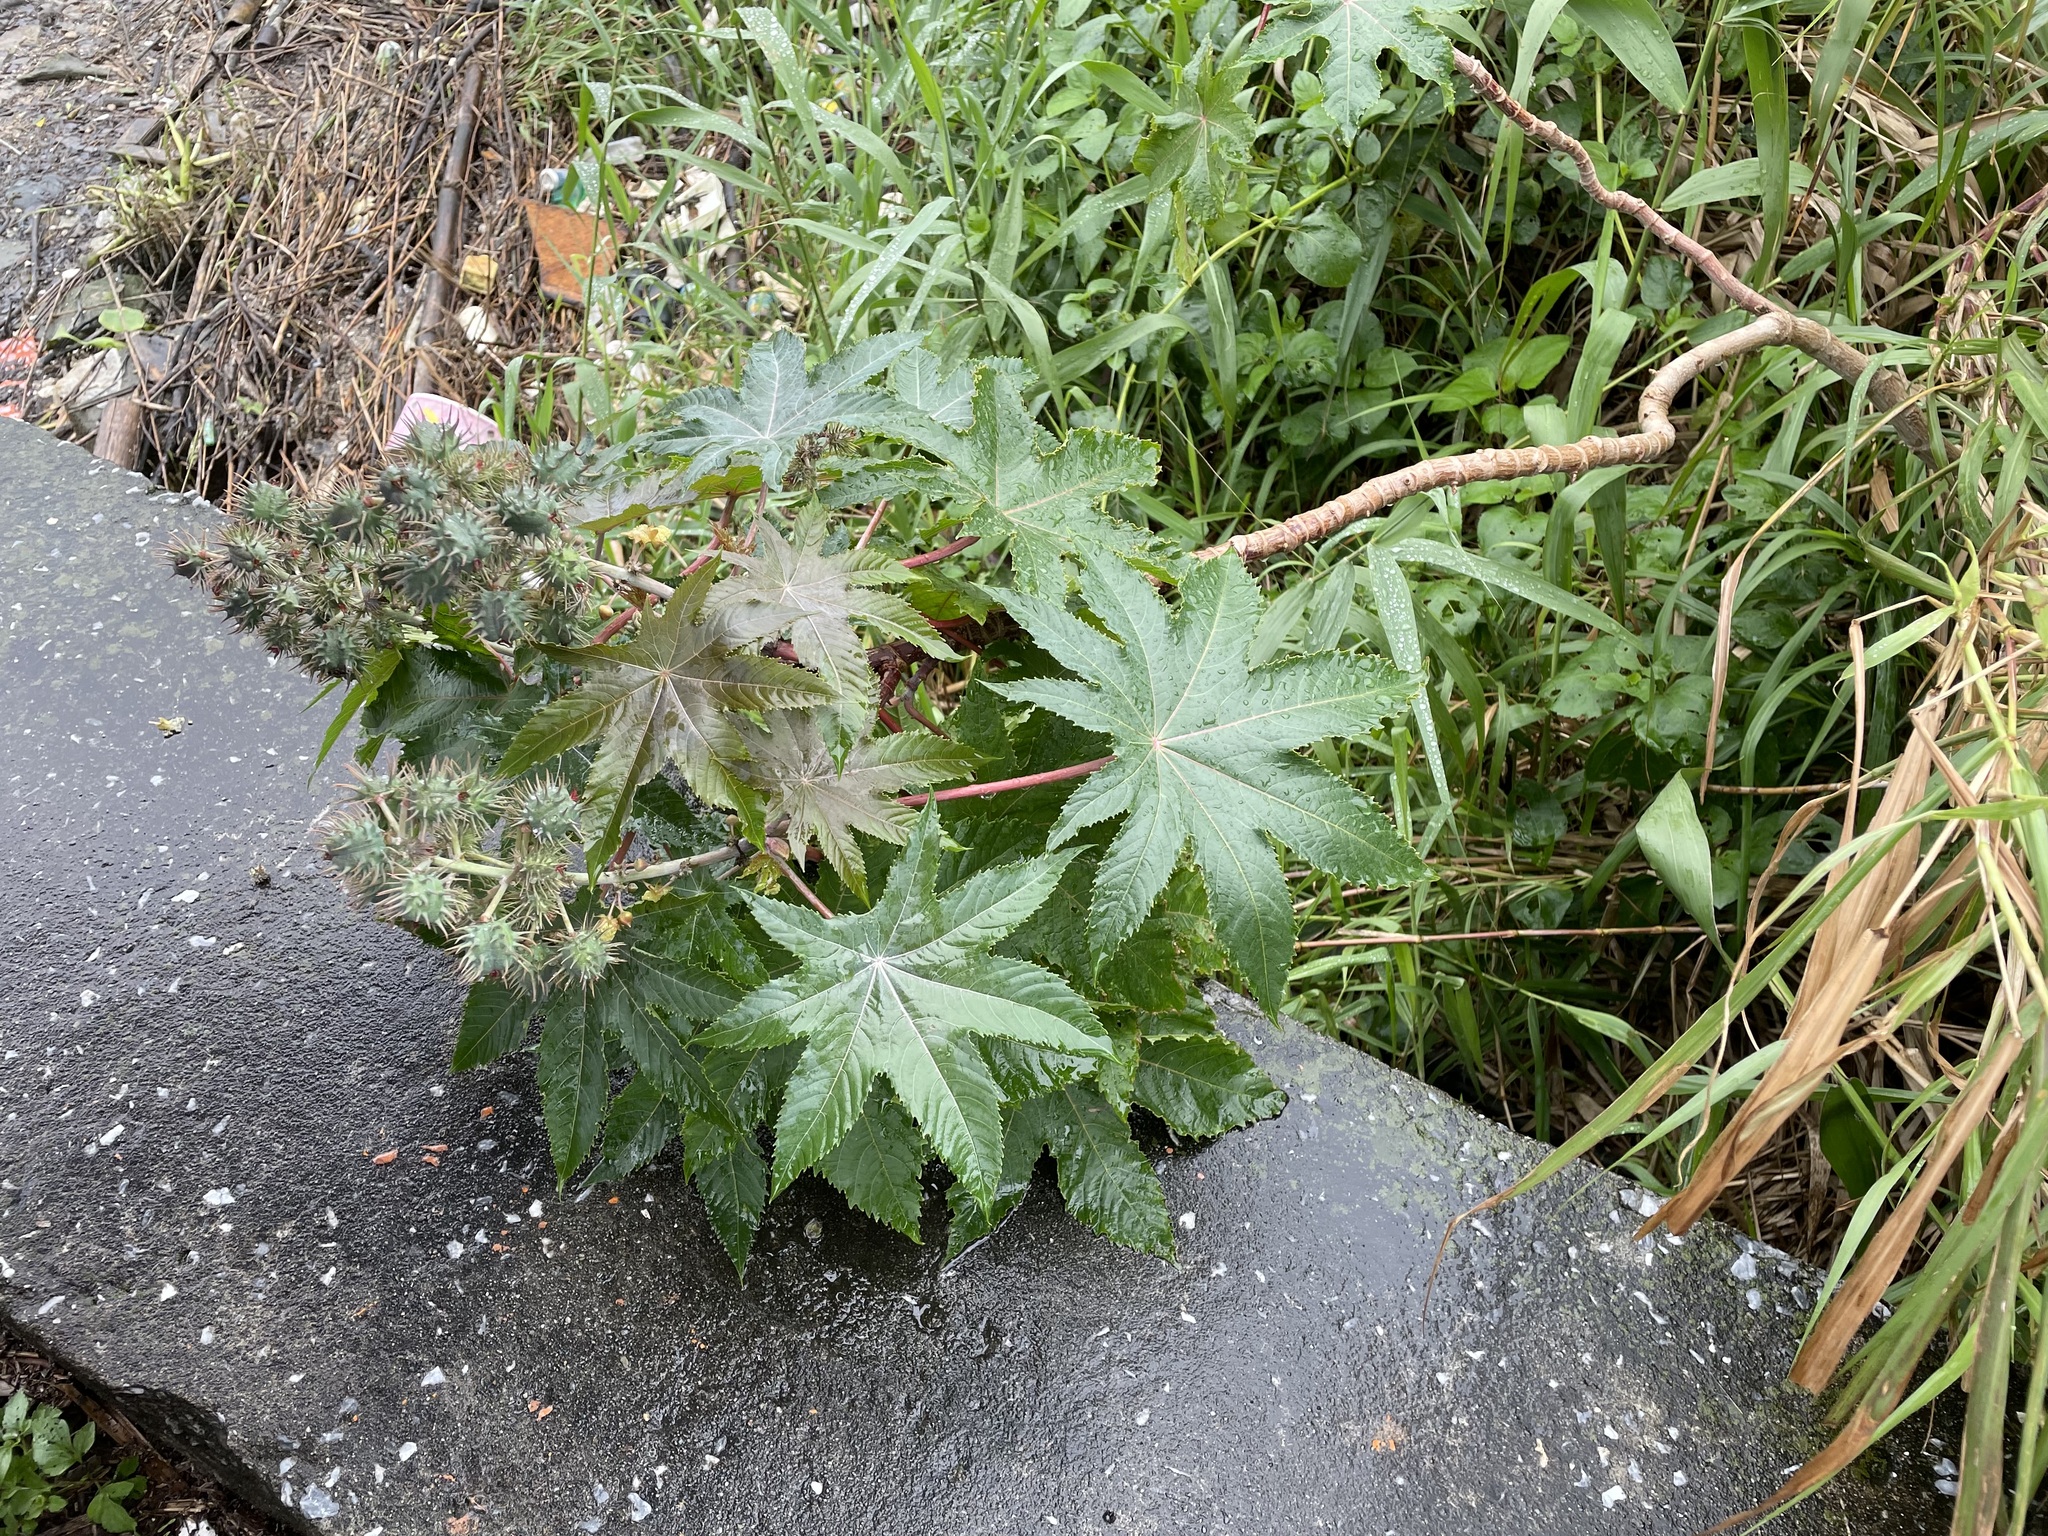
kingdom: Plantae
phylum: Tracheophyta
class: Magnoliopsida
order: Malpighiales
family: Euphorbiaceae
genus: Ricinus
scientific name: Ricinus communis
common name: Castor-oil-plant
